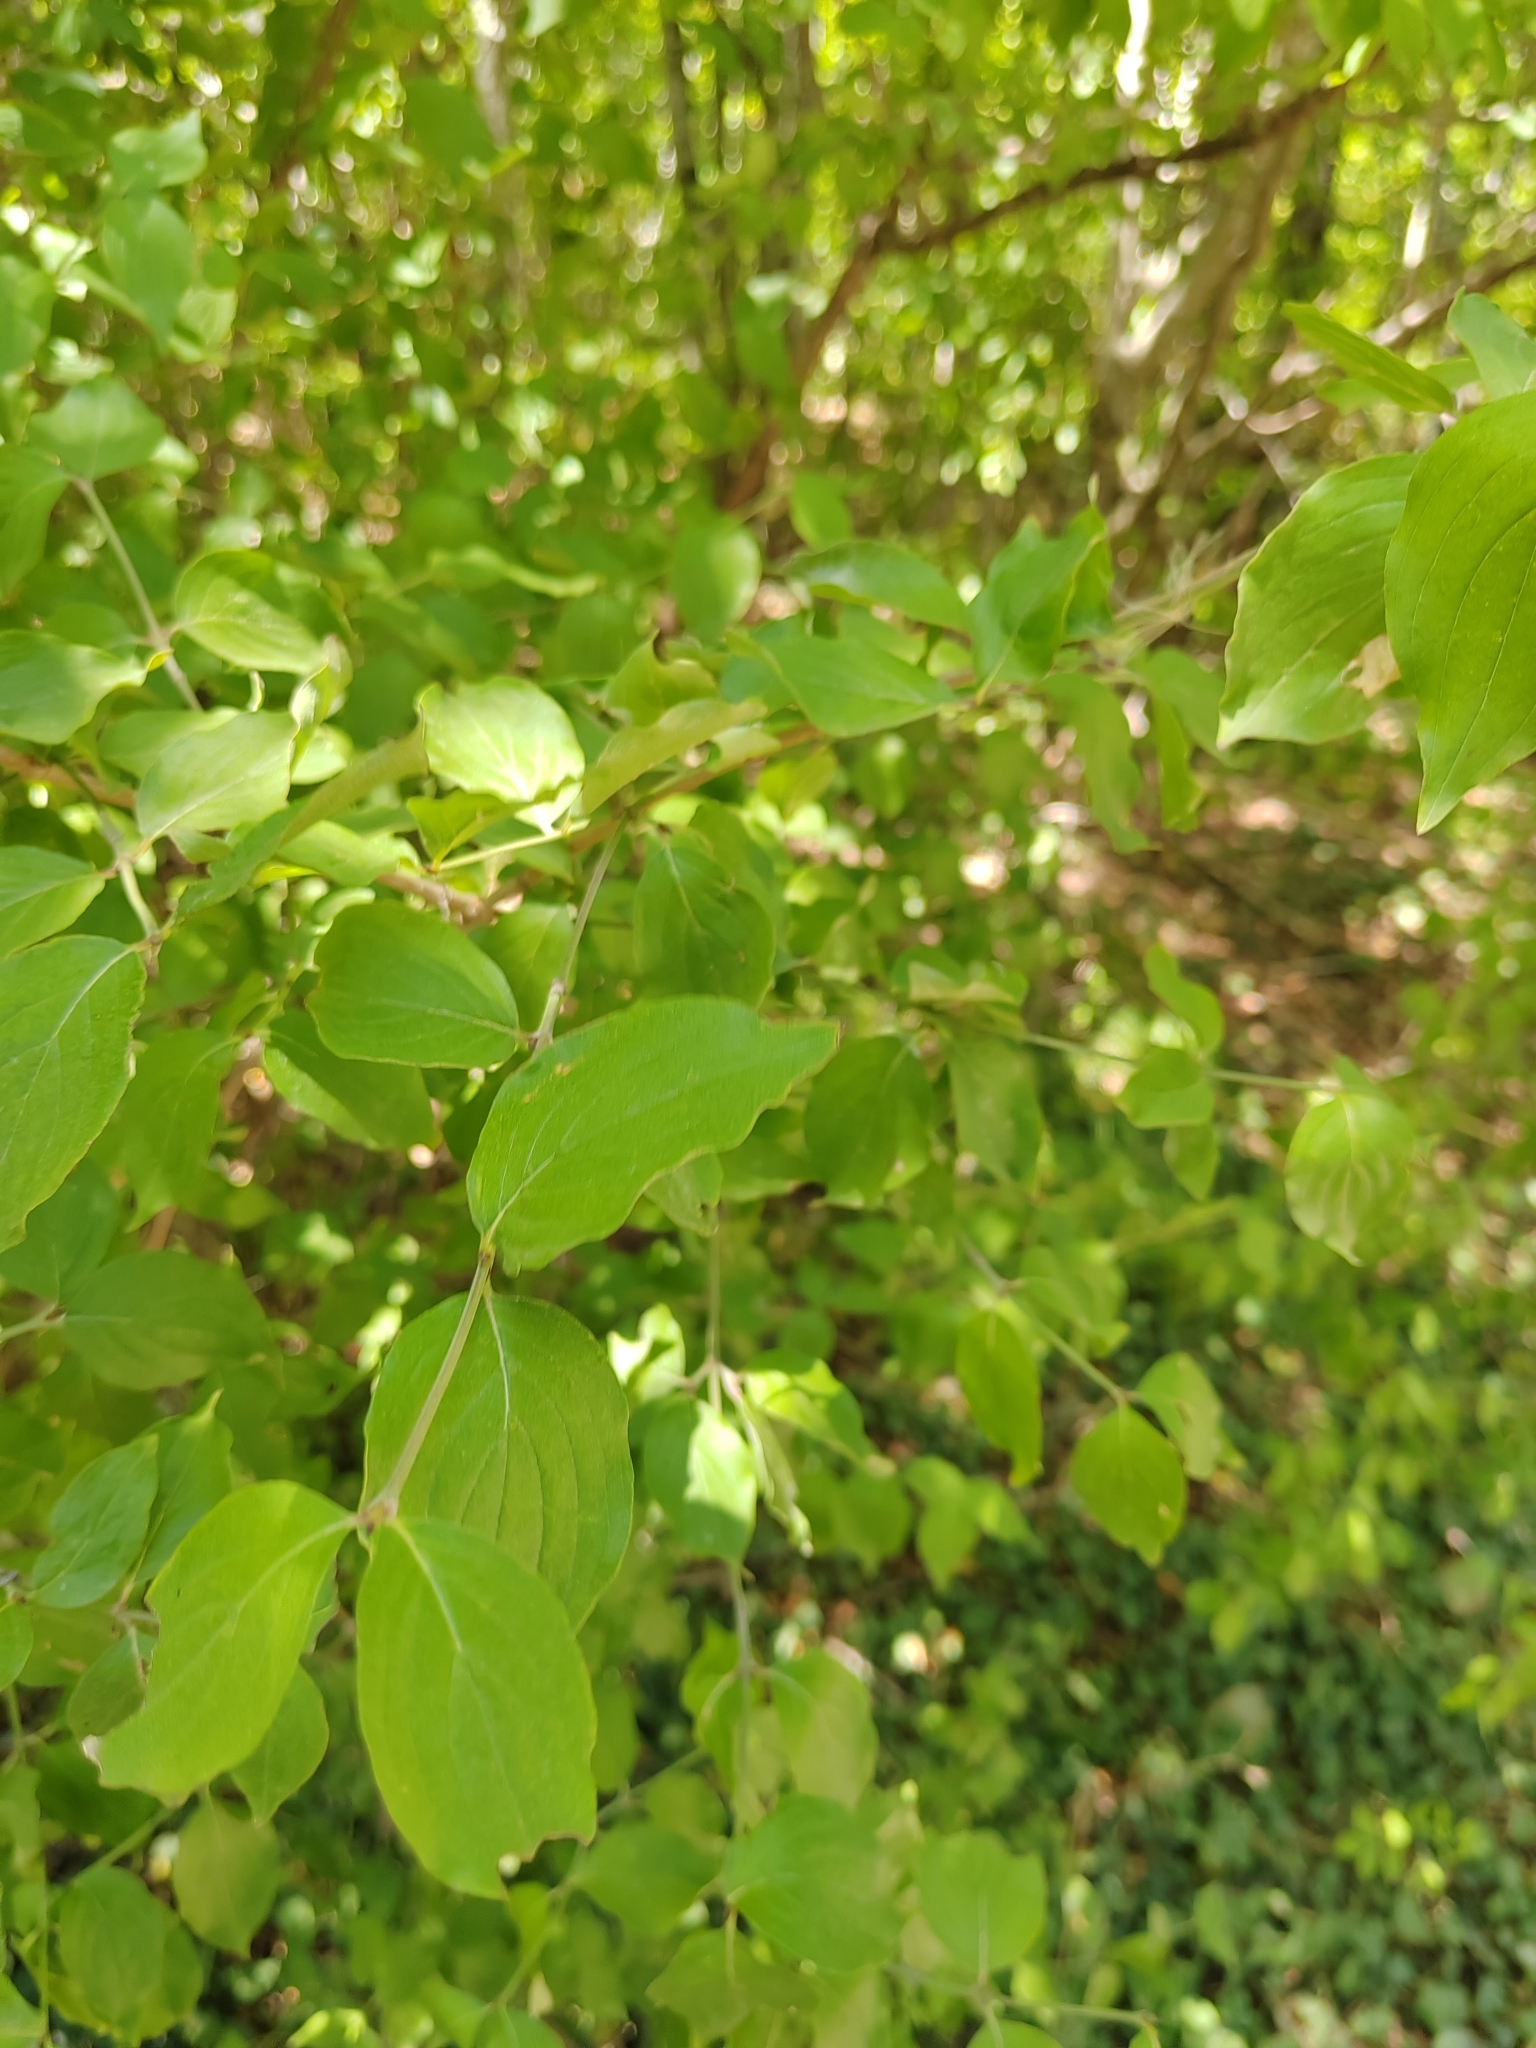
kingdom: Plantae
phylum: Tracheophyta
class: Magnoliopsida
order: Cornales
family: Cornaceae
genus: Cornus
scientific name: Cornus mas
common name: Cornelian-cherry
